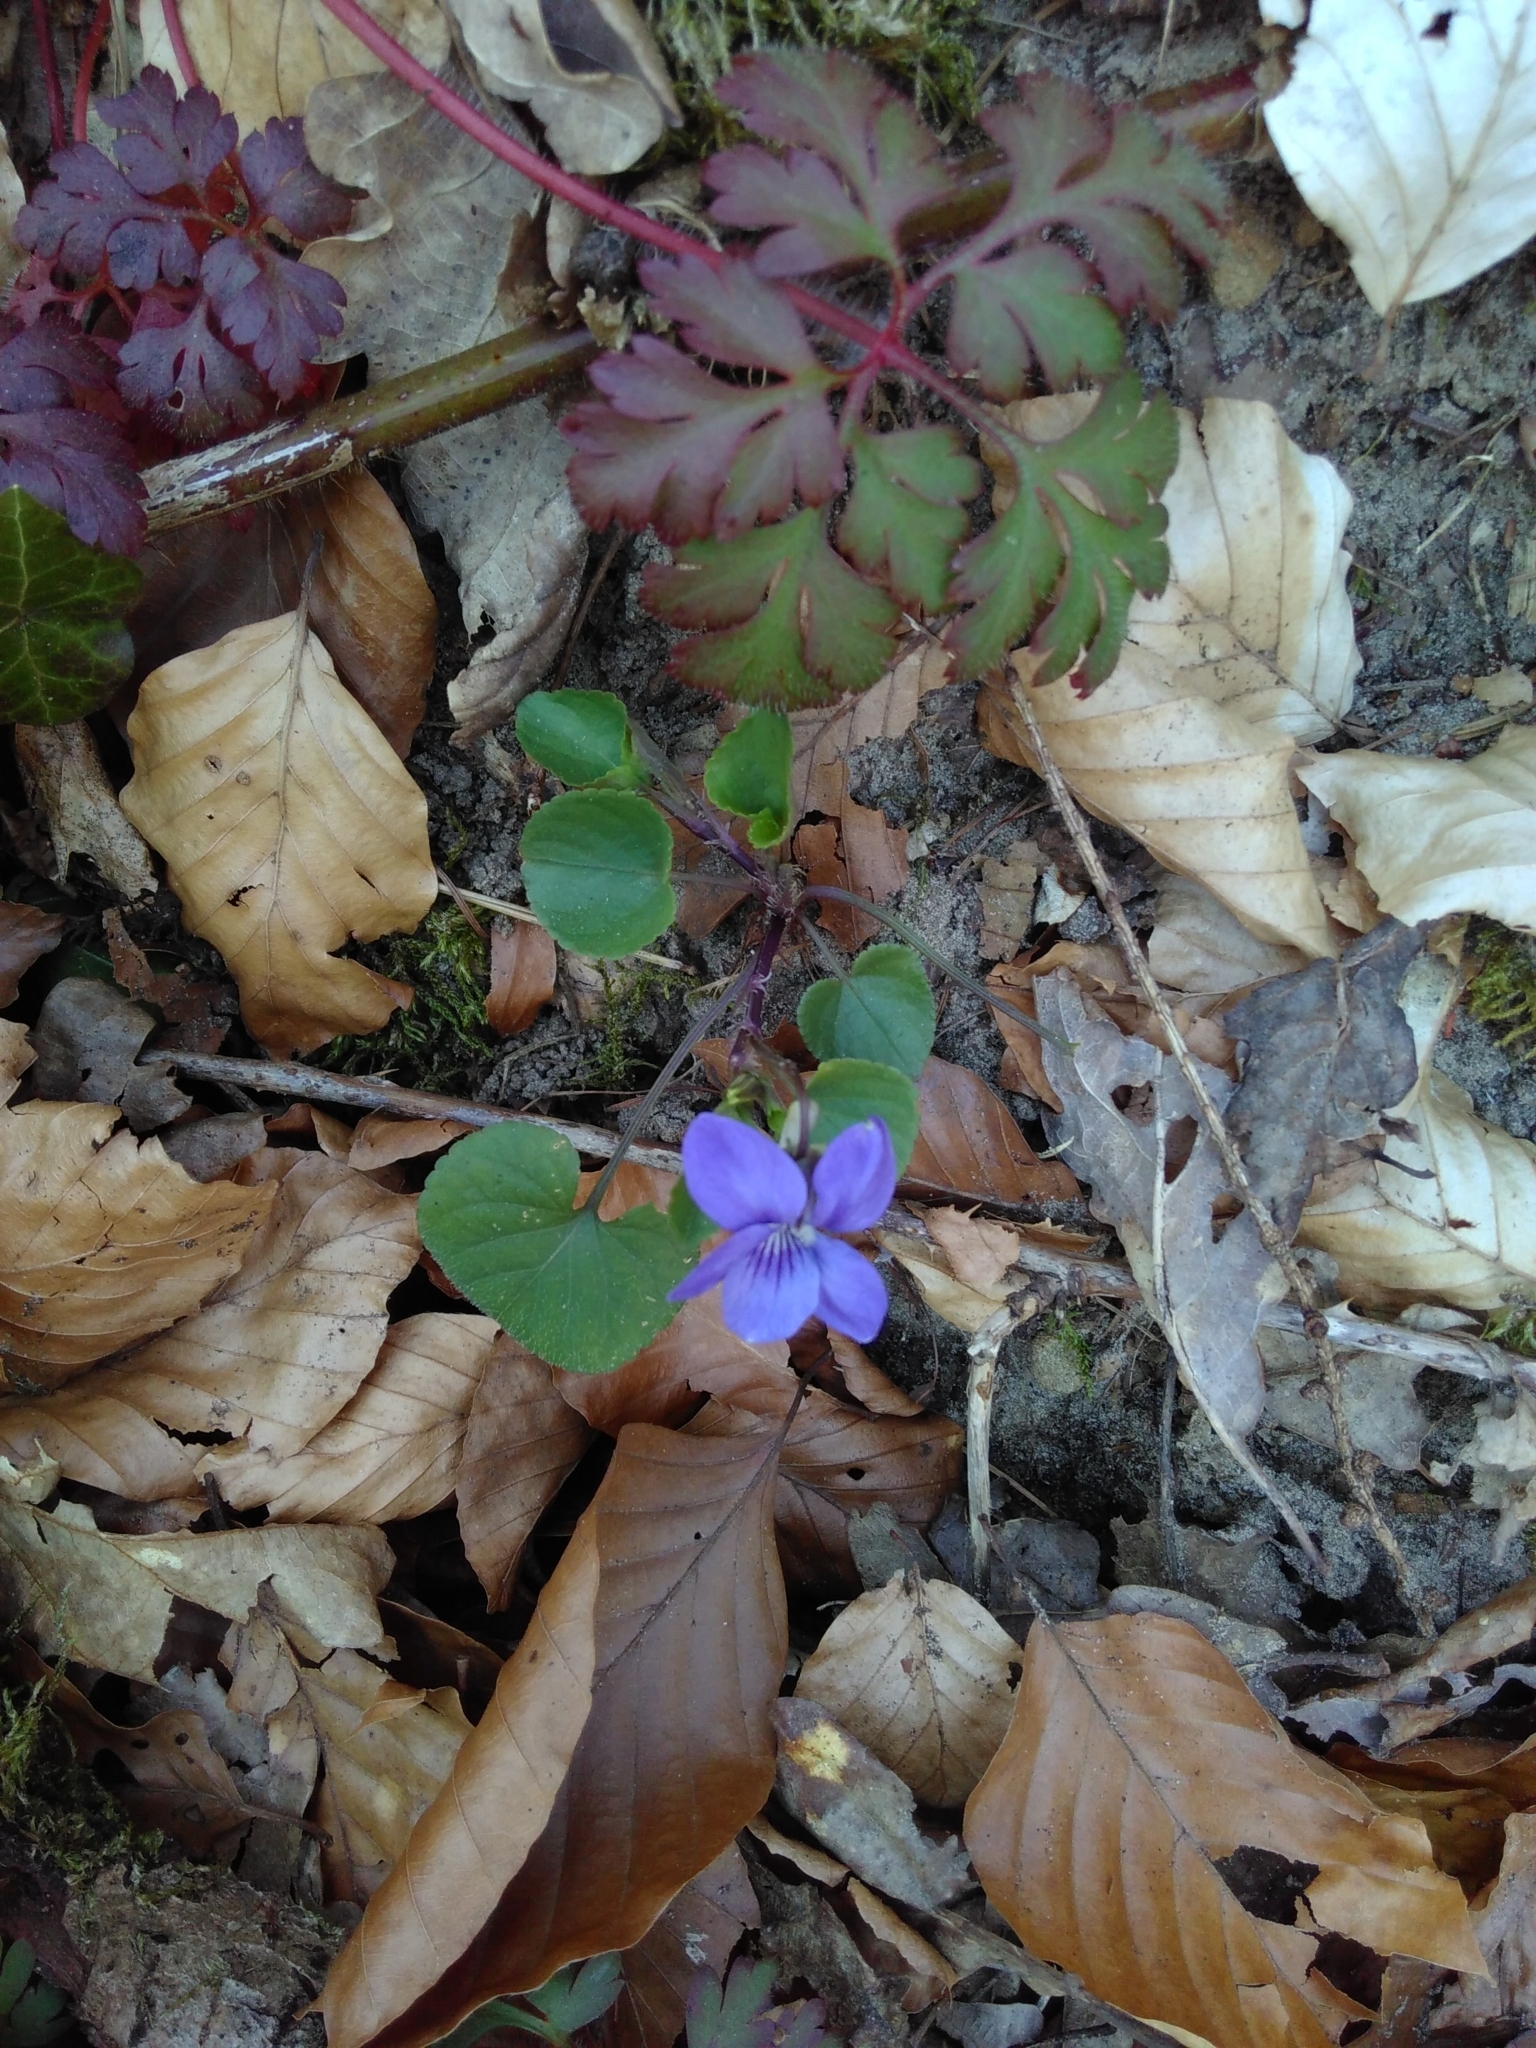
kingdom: Plantae
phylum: Tracheophyta
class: Magnoliopsida
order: Malpighiales
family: Violaceae
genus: Viola
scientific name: Viola riviniana
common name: Common dog-violet
